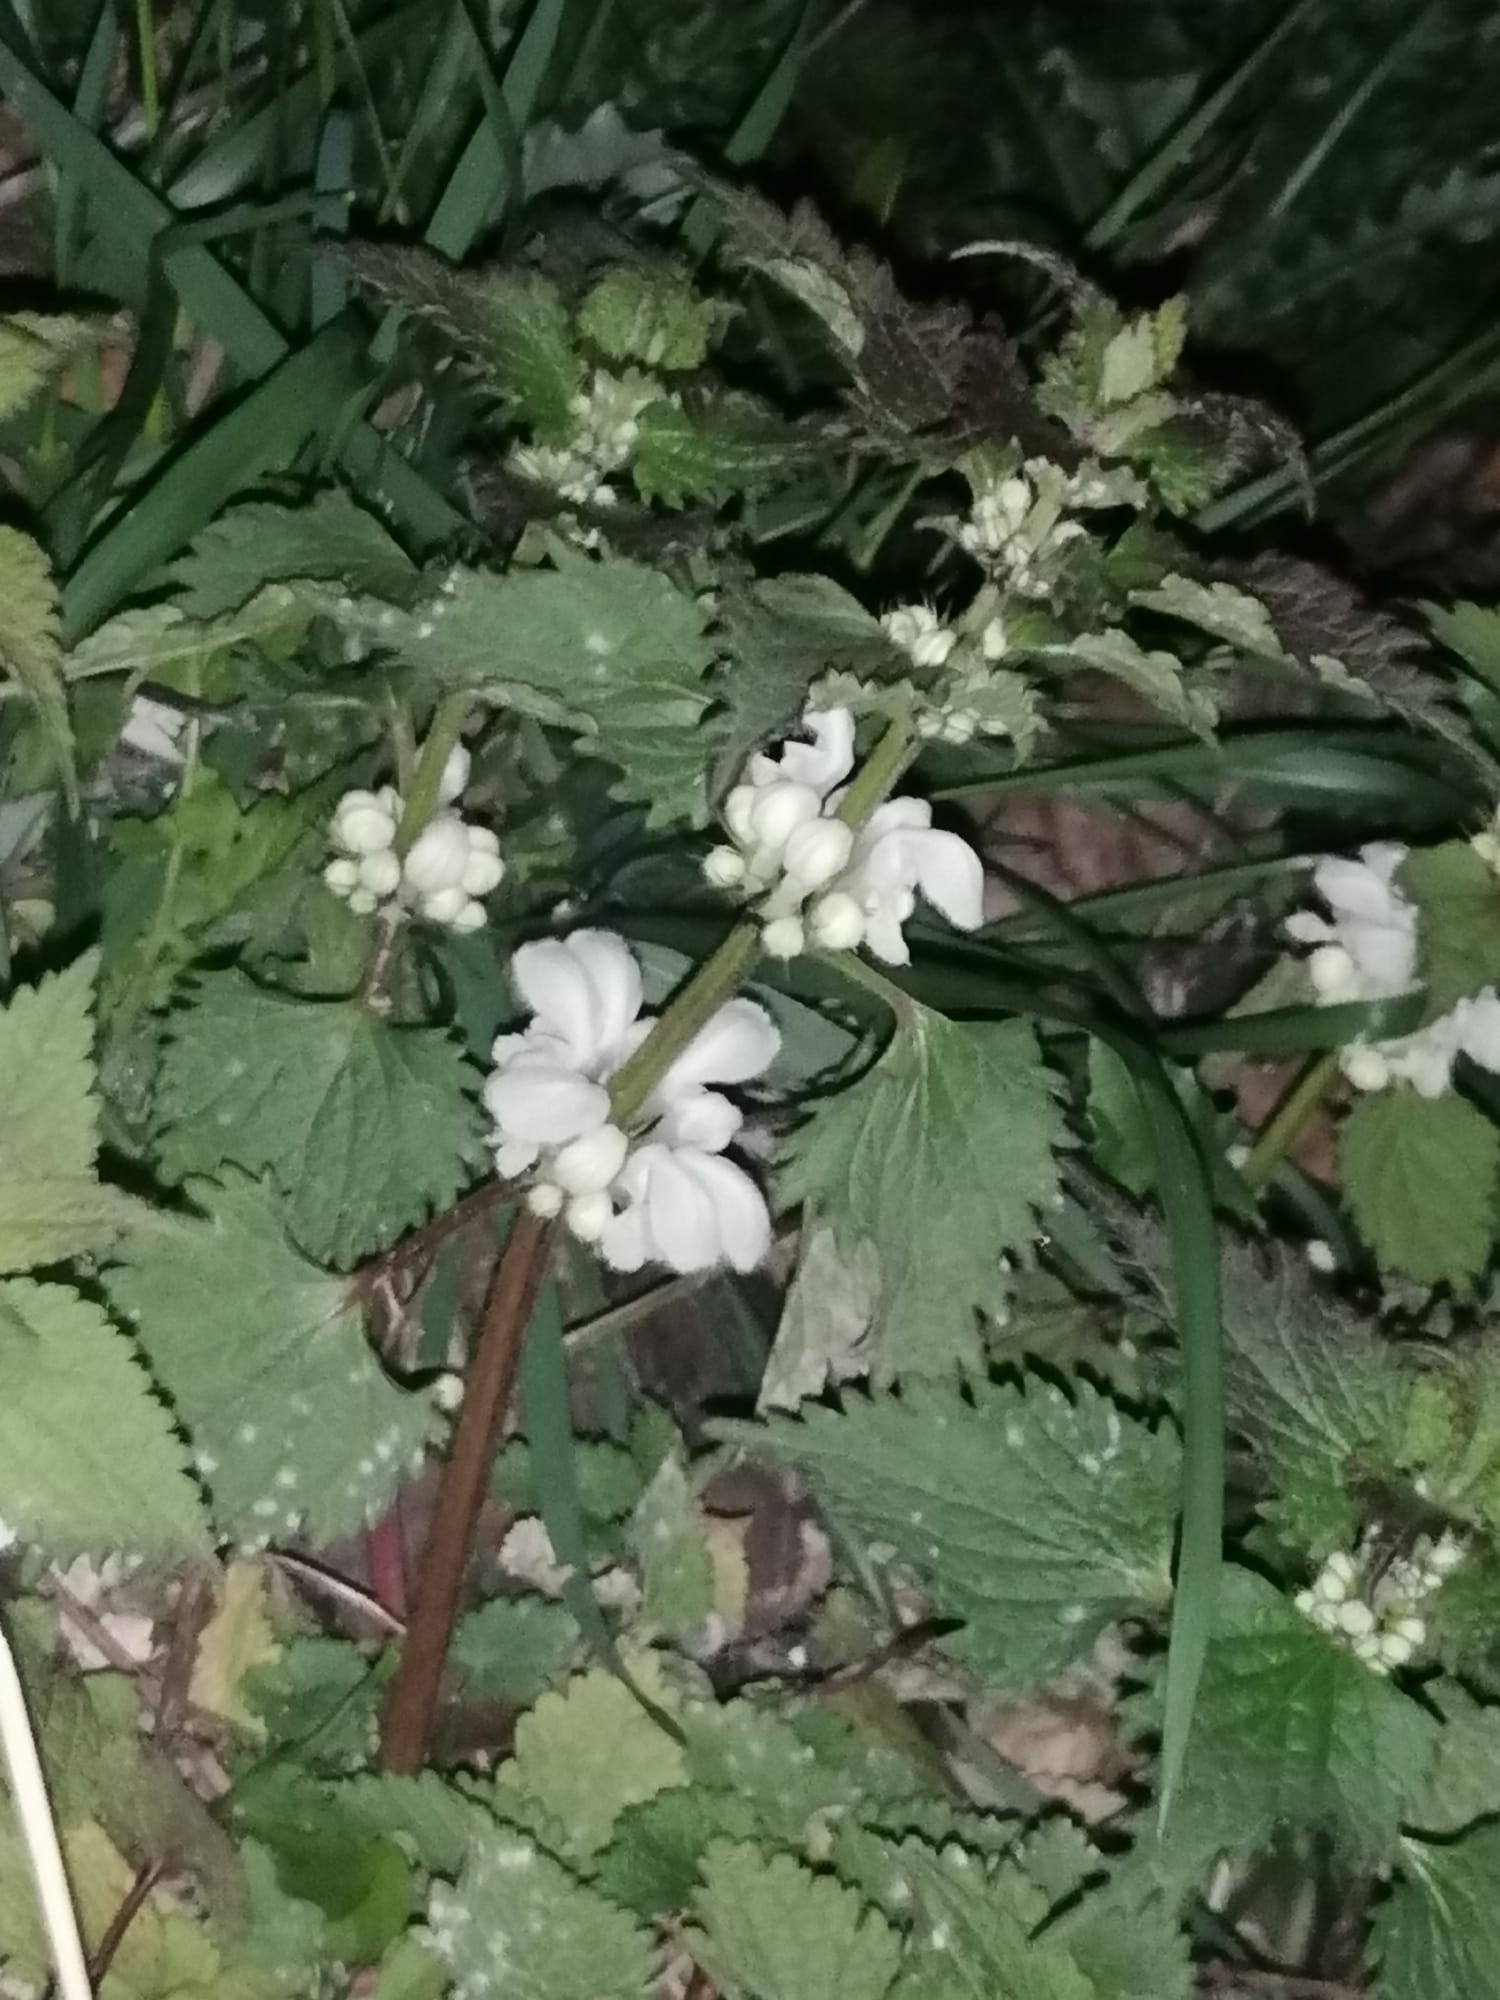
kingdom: Plantae
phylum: Tracheophyta
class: Magnoliopsida
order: Lamiales
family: Lamiaceae
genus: Lamium
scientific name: Lamium album
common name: White dead-nettle
